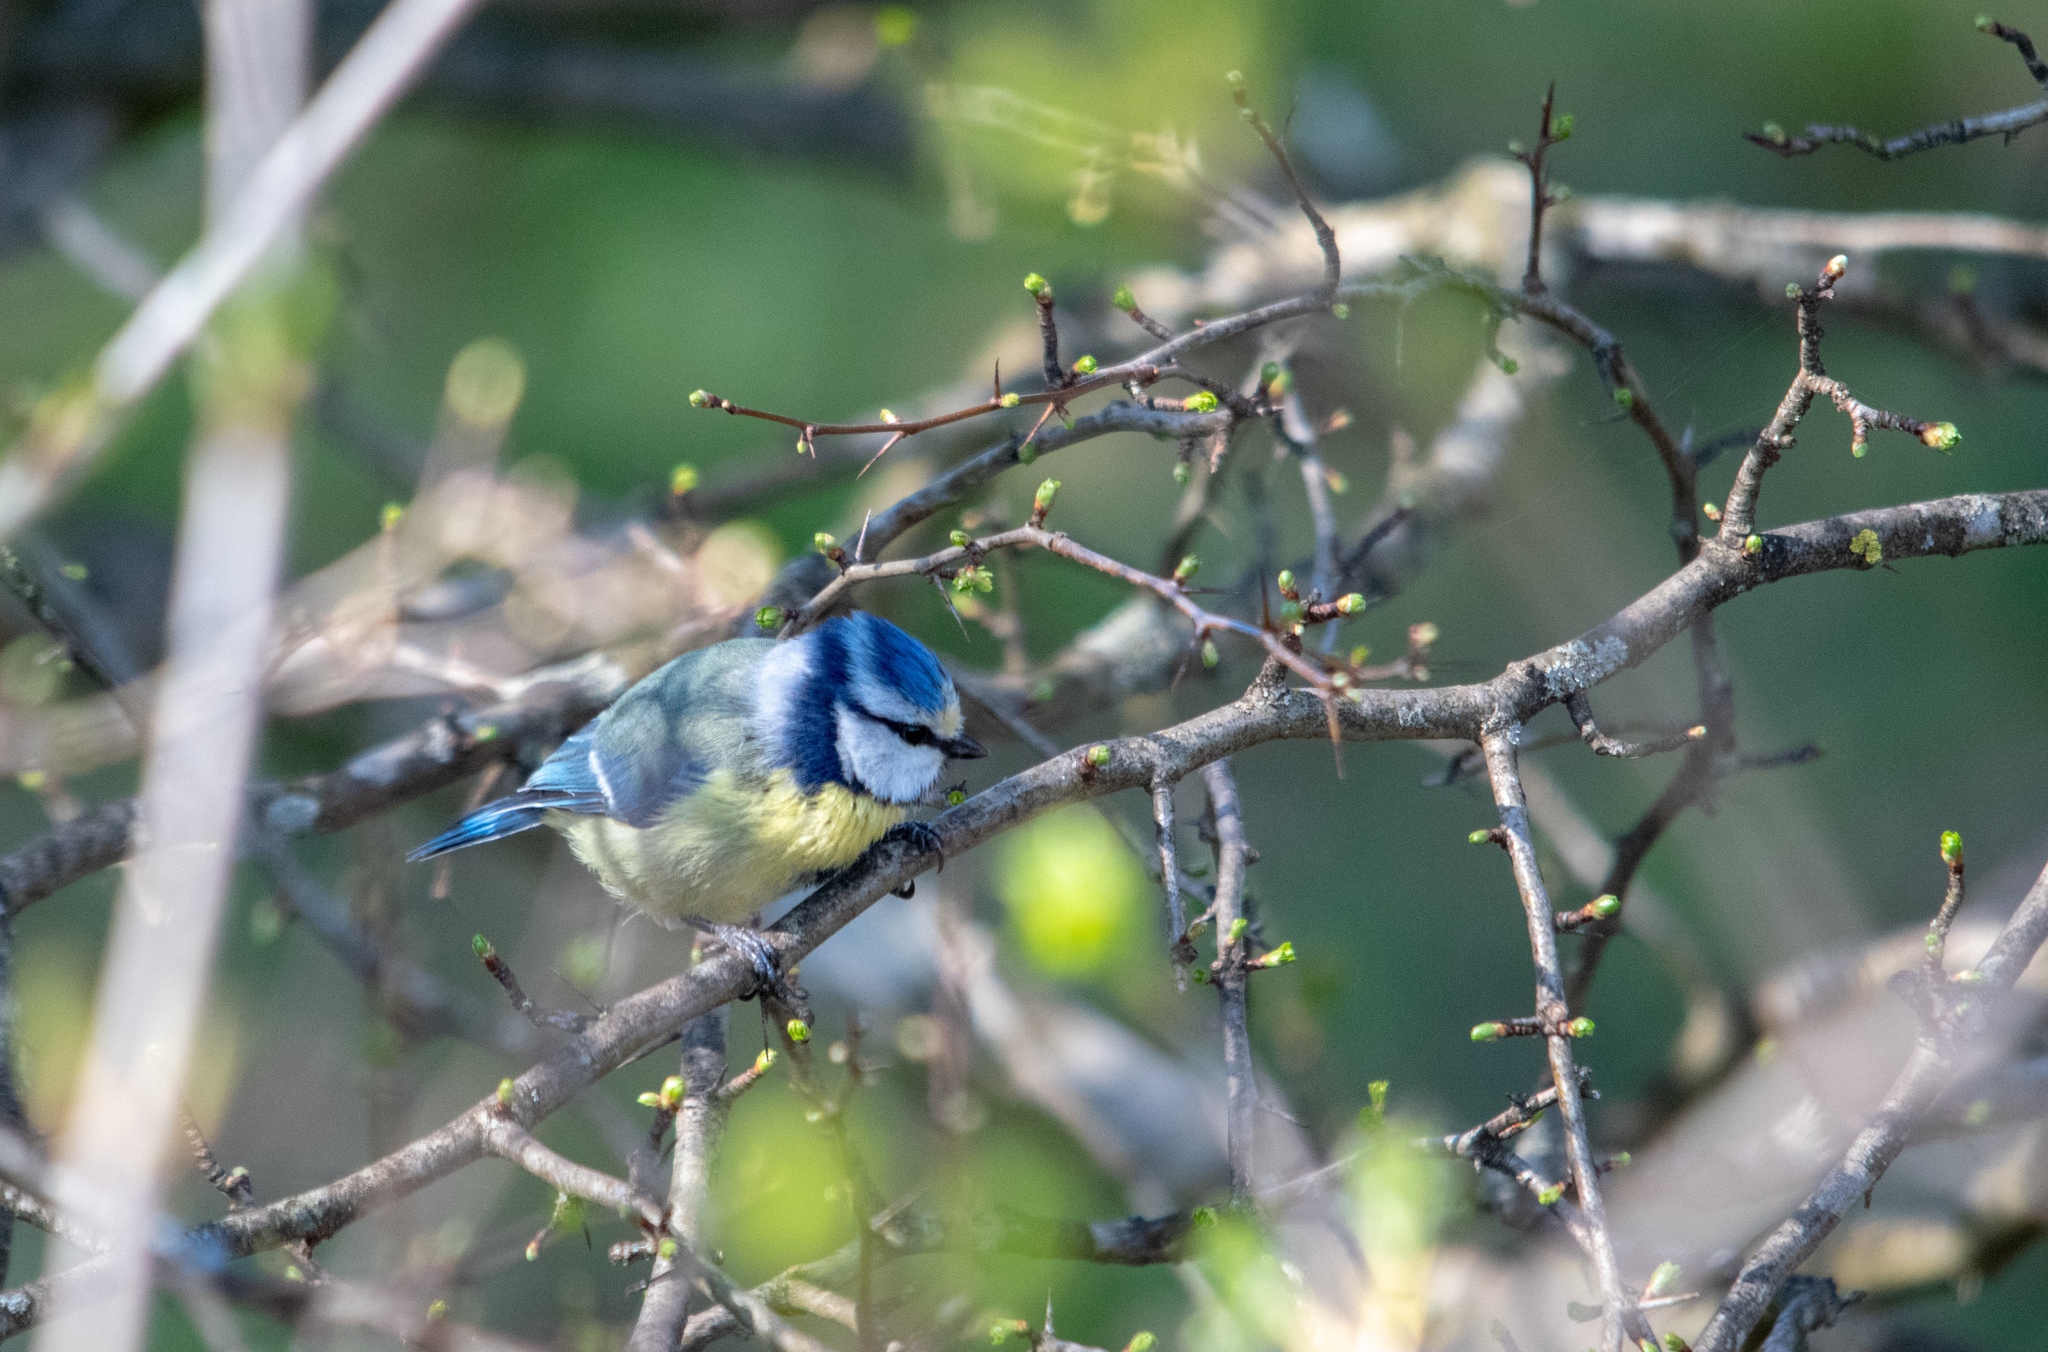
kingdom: Animalia
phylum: Chordata
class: Aves
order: Passeriformes
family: Paridae
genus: Cyanistes
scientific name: Cyanistes caeruleus
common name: Eurasian blue tit
